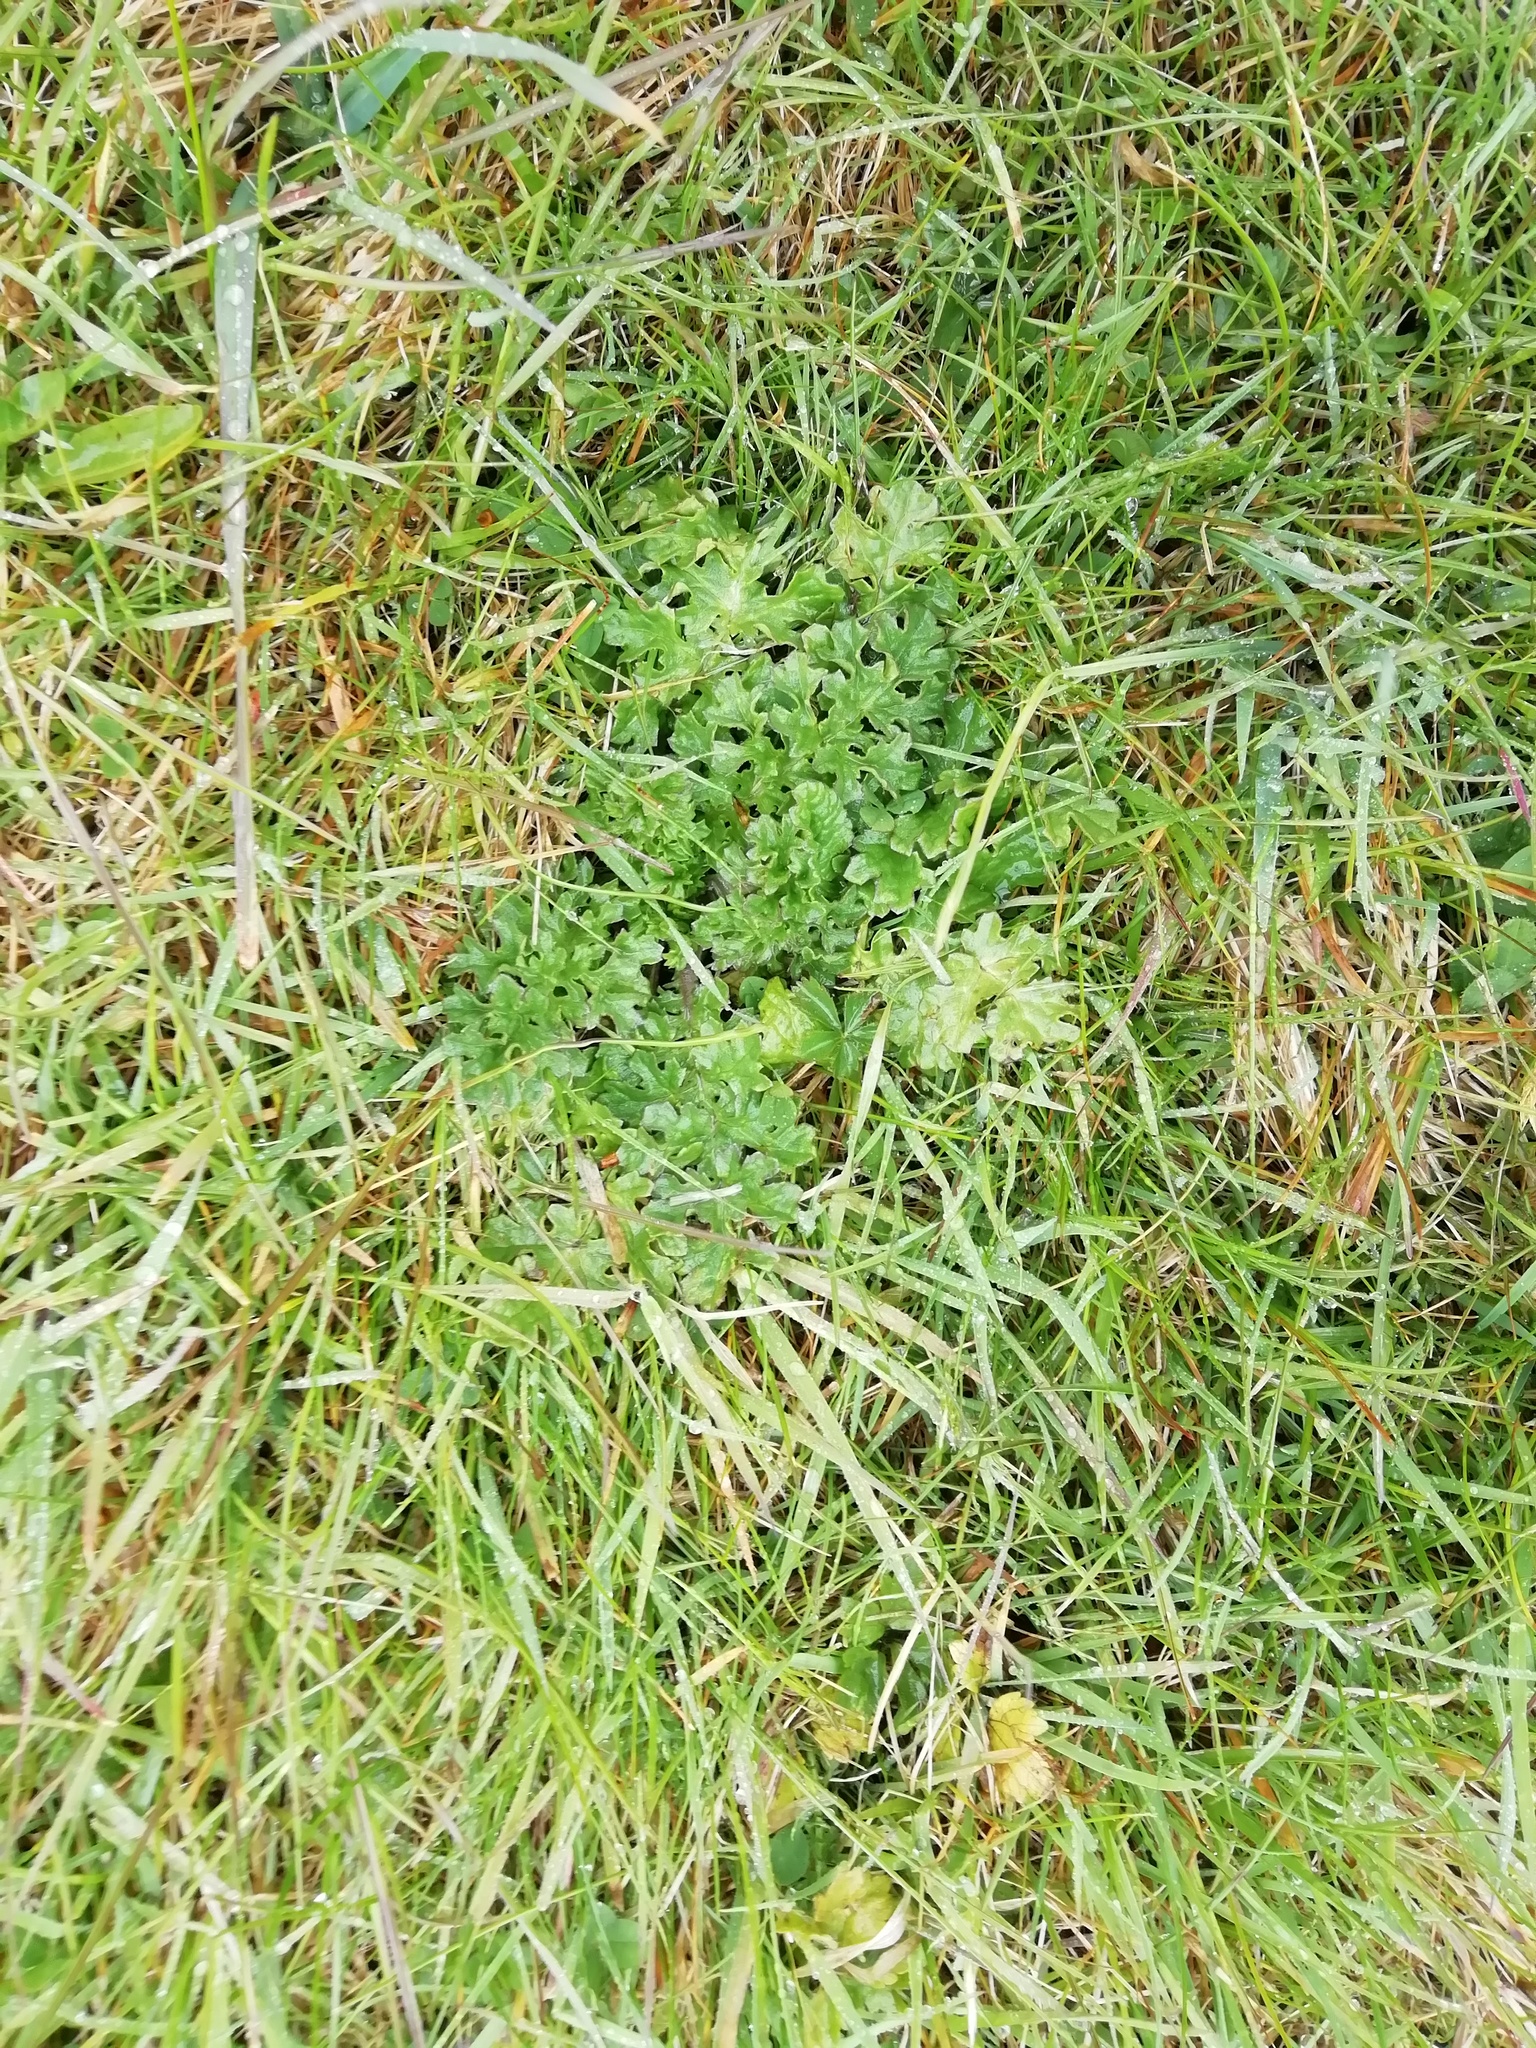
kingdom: Plantae
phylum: Tracheophyta
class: Magnoliopsida
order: Asterales
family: Asteraceae
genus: Jacobaea
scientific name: Jacobaea vulgaris
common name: Stinking willie
